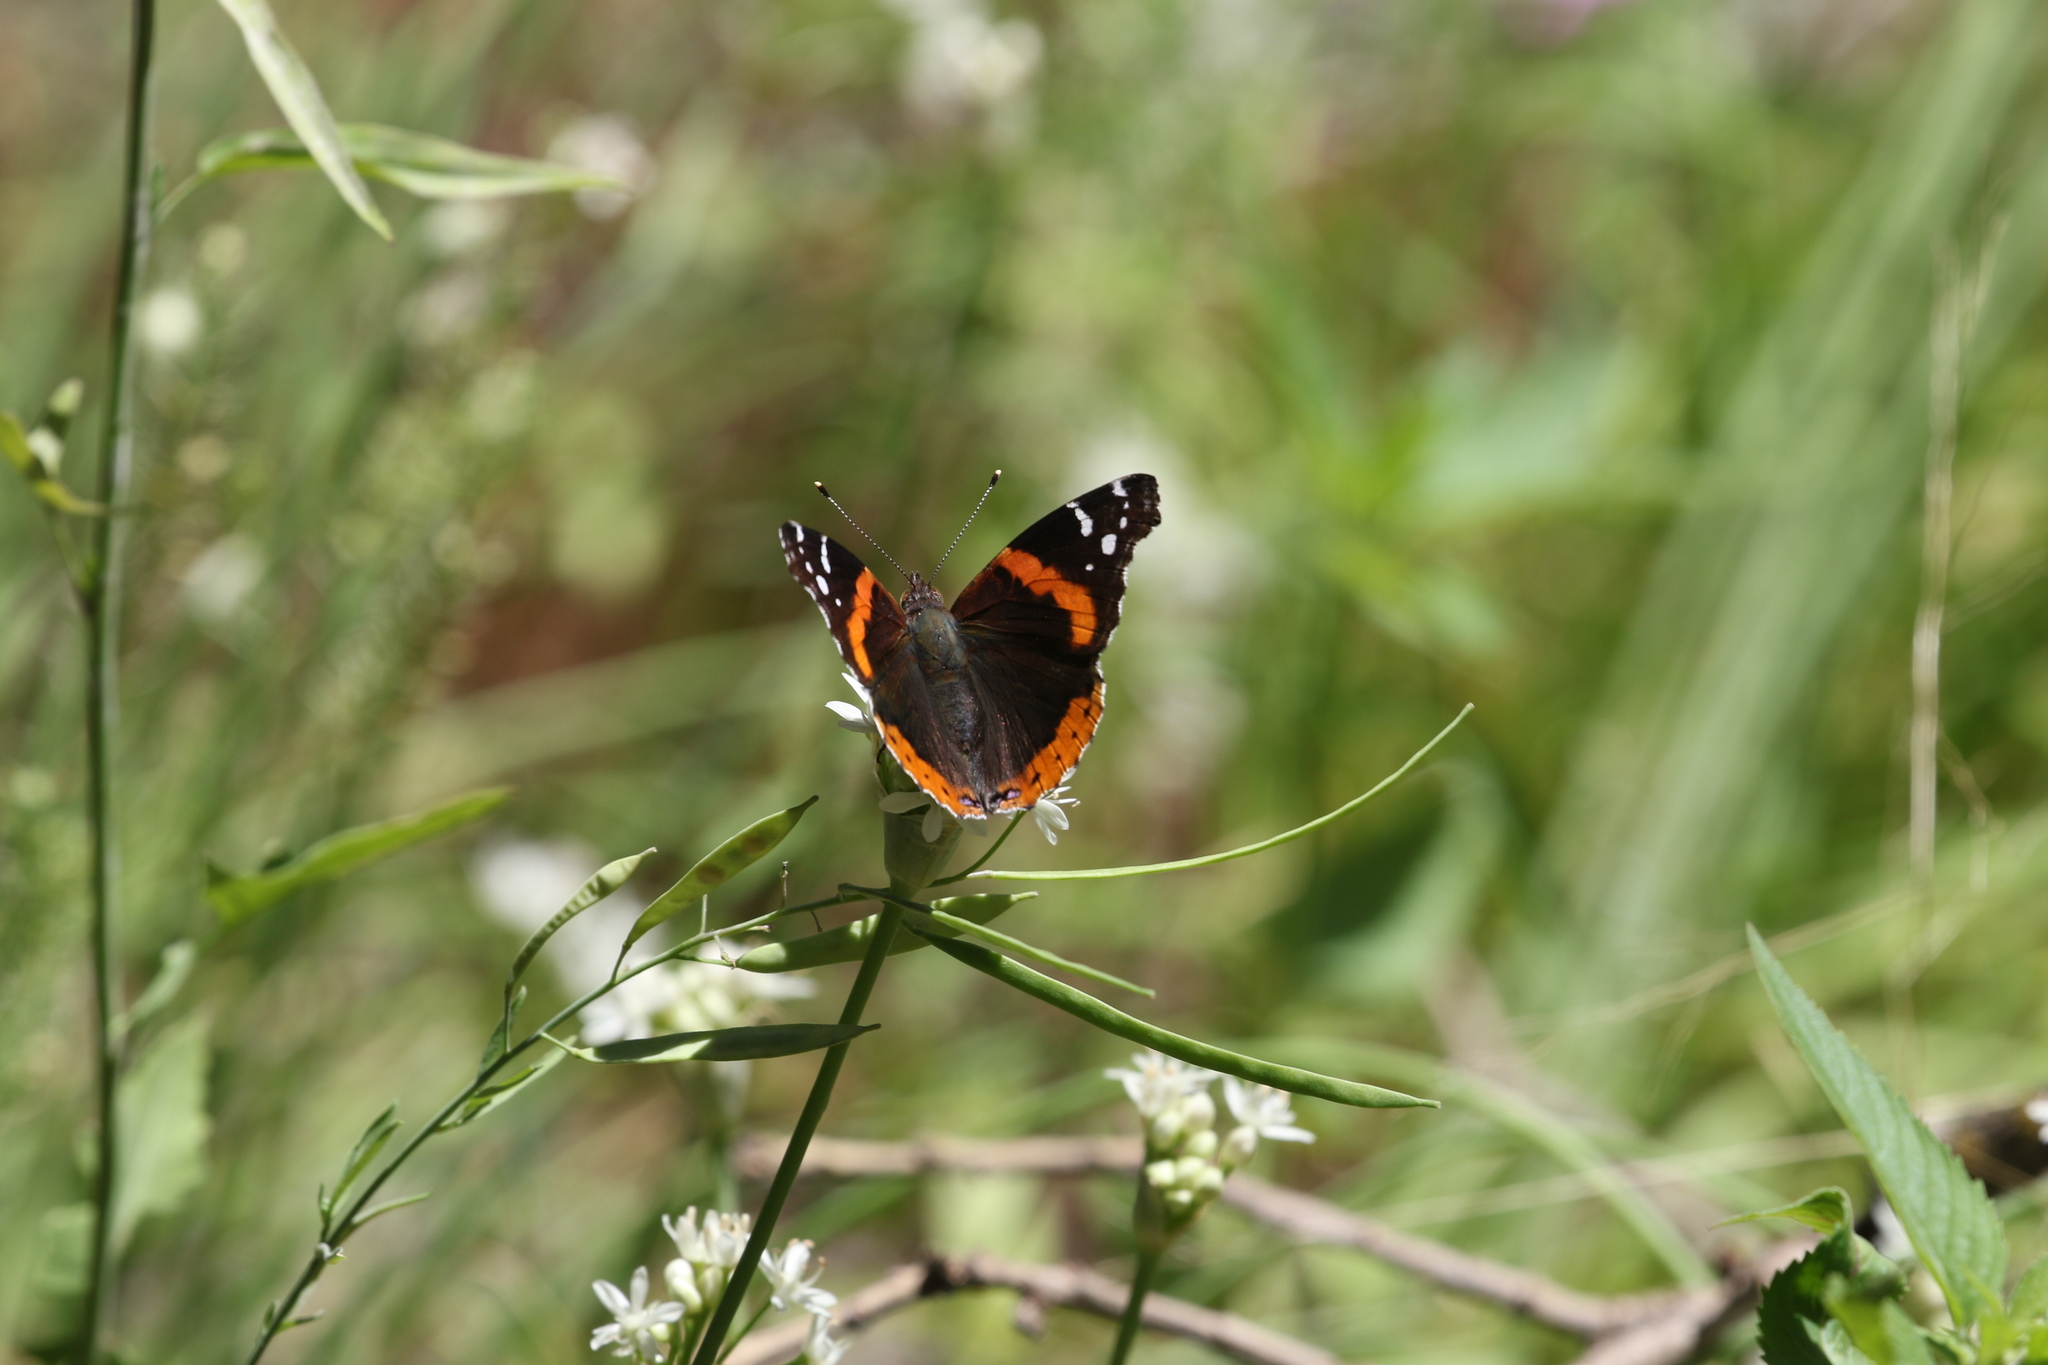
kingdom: Animalia
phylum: Arthropoda
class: Insecta
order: Lepidoptera
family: Nymphalidae
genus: Vanessa
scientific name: Vanessa atalanta
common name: Red admiral
